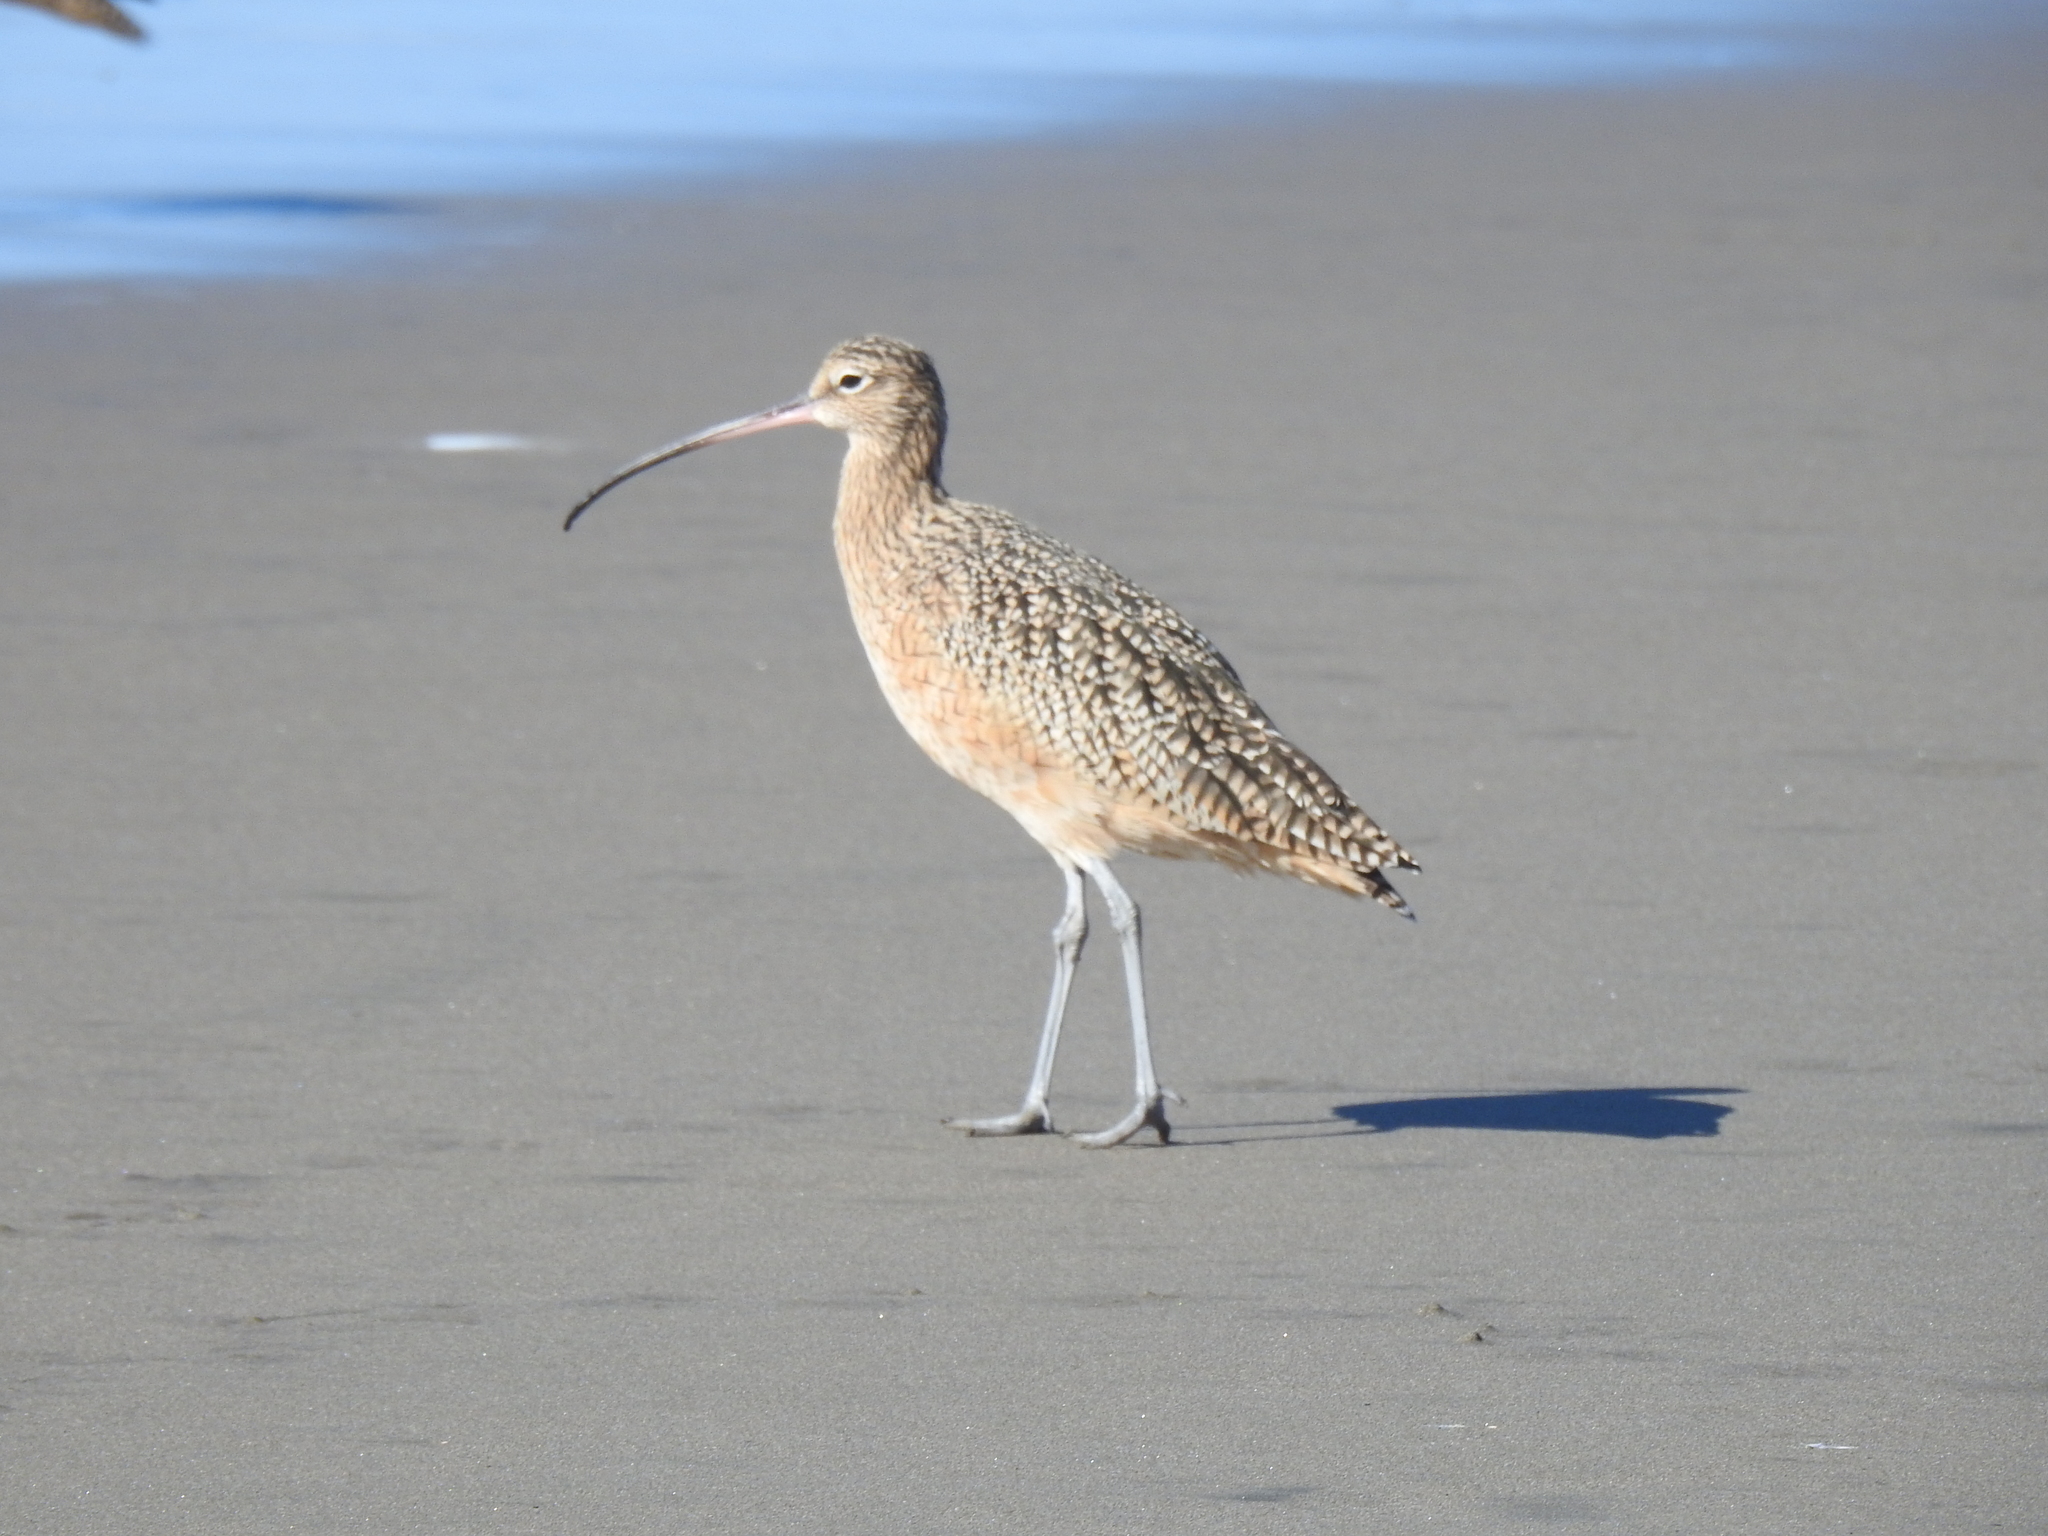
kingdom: Animalia
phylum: Chordata
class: Aves
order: Charadriiformes
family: Scolopacidae
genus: Numenius
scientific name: Numenius americanus
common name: Long-billed curlew
